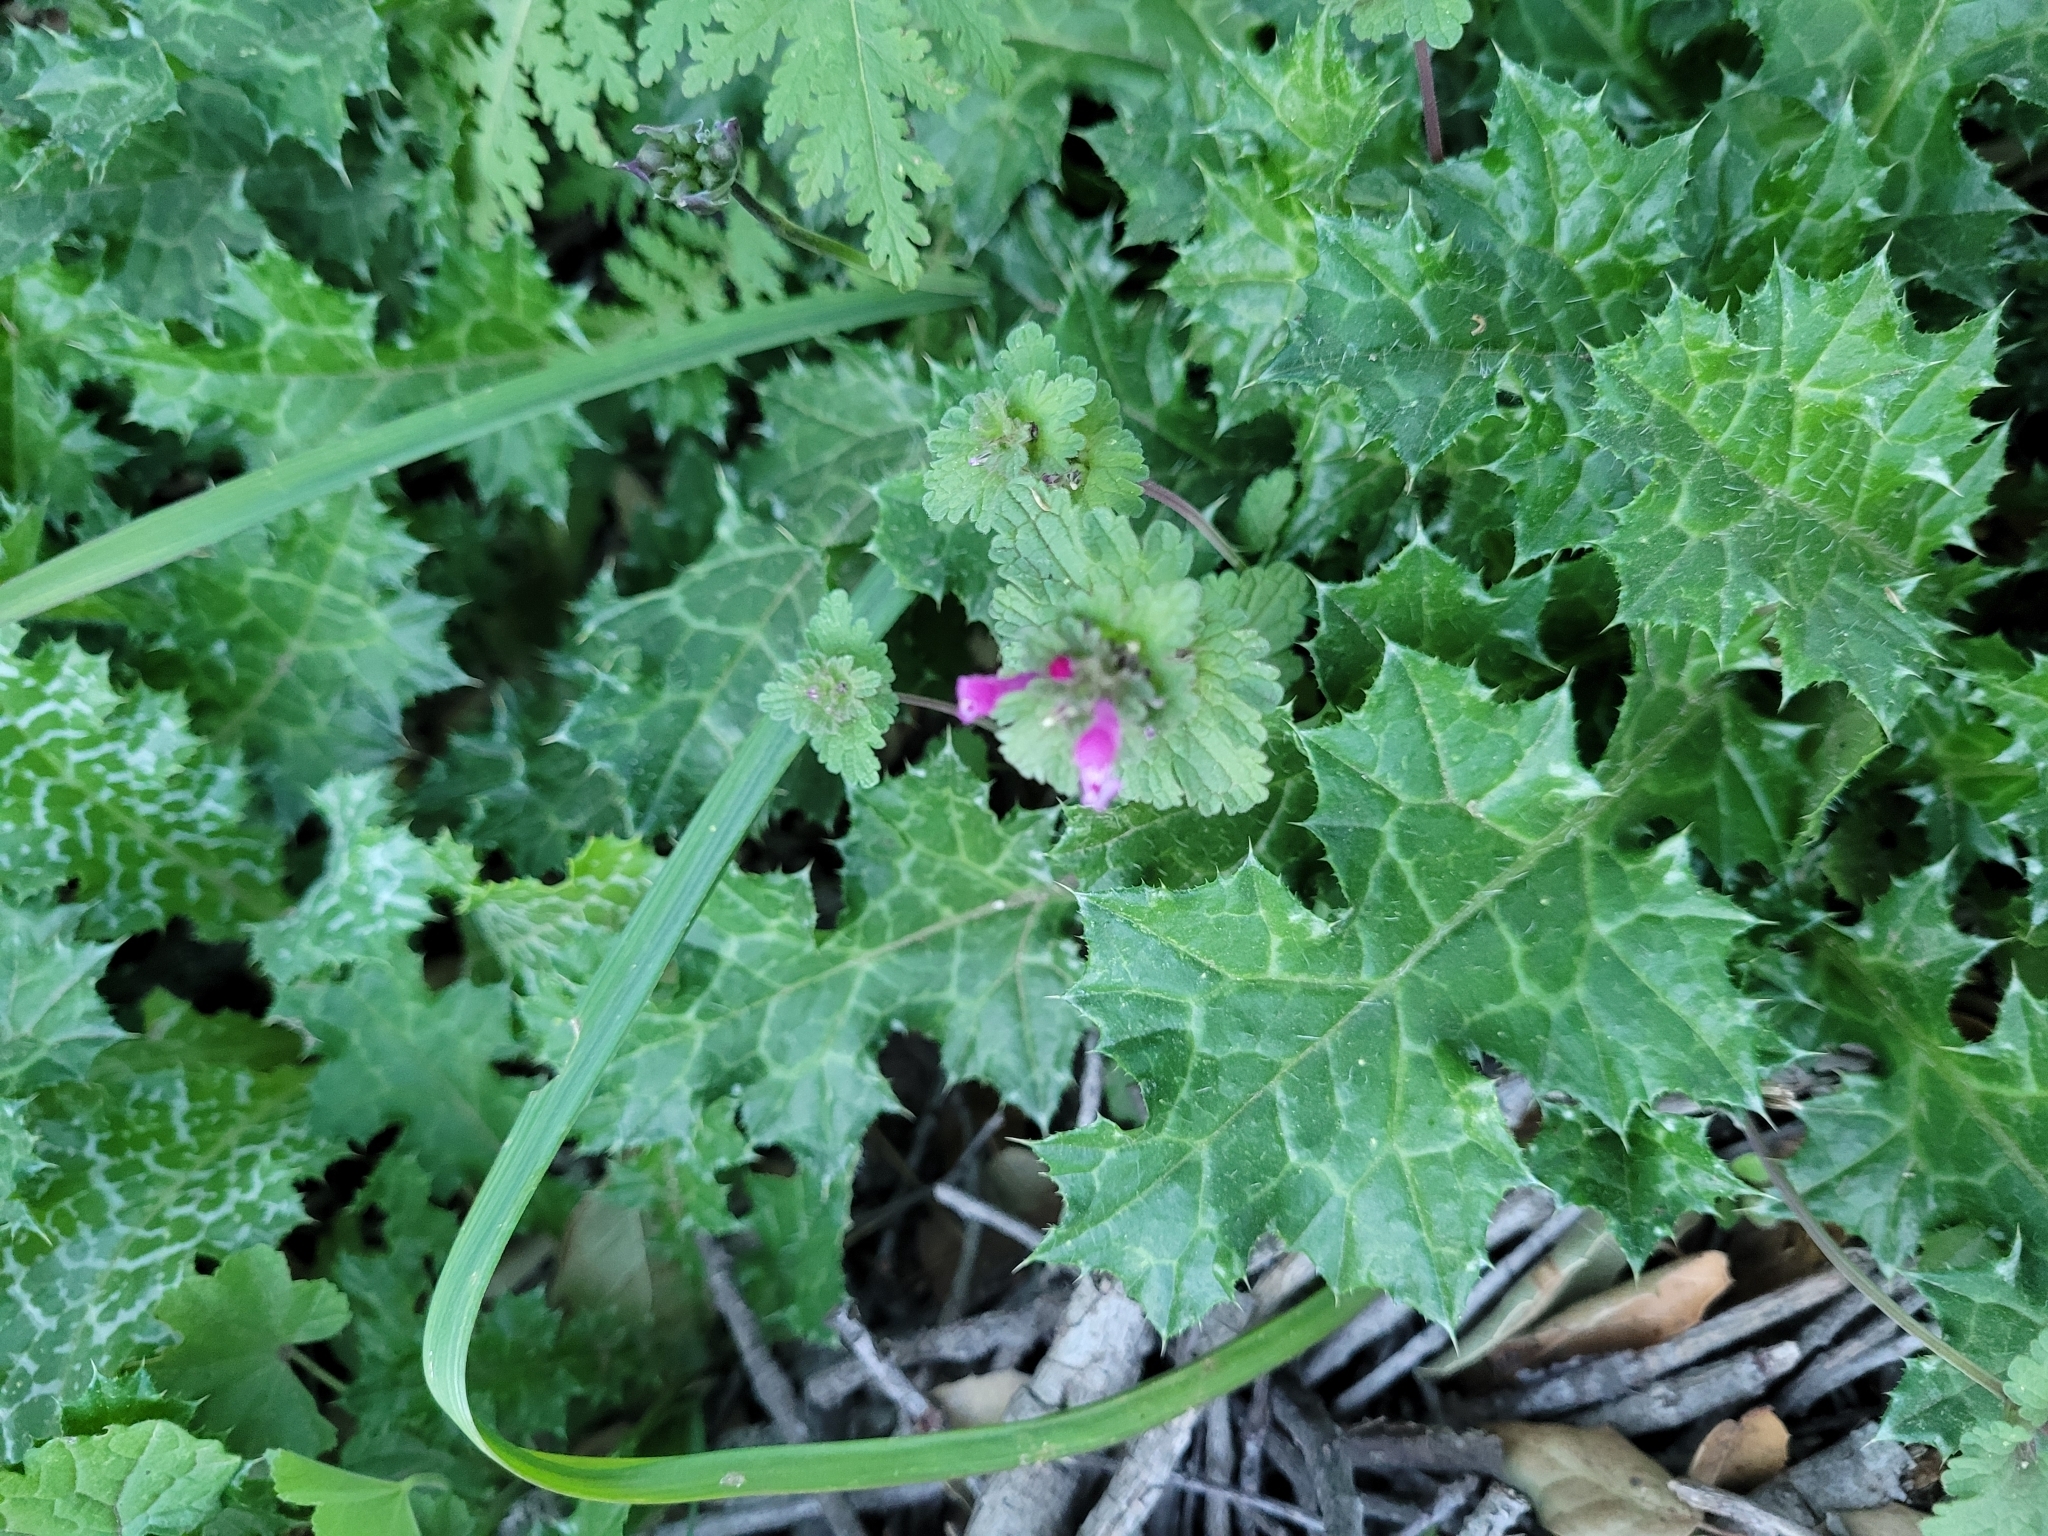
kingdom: Plantae
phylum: Tracheophyta
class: Magnoliopsida
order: Lamiales
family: Lamiaceae
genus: Lamium
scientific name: Lamium amplexicaule
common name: Henbit dead-nettle
